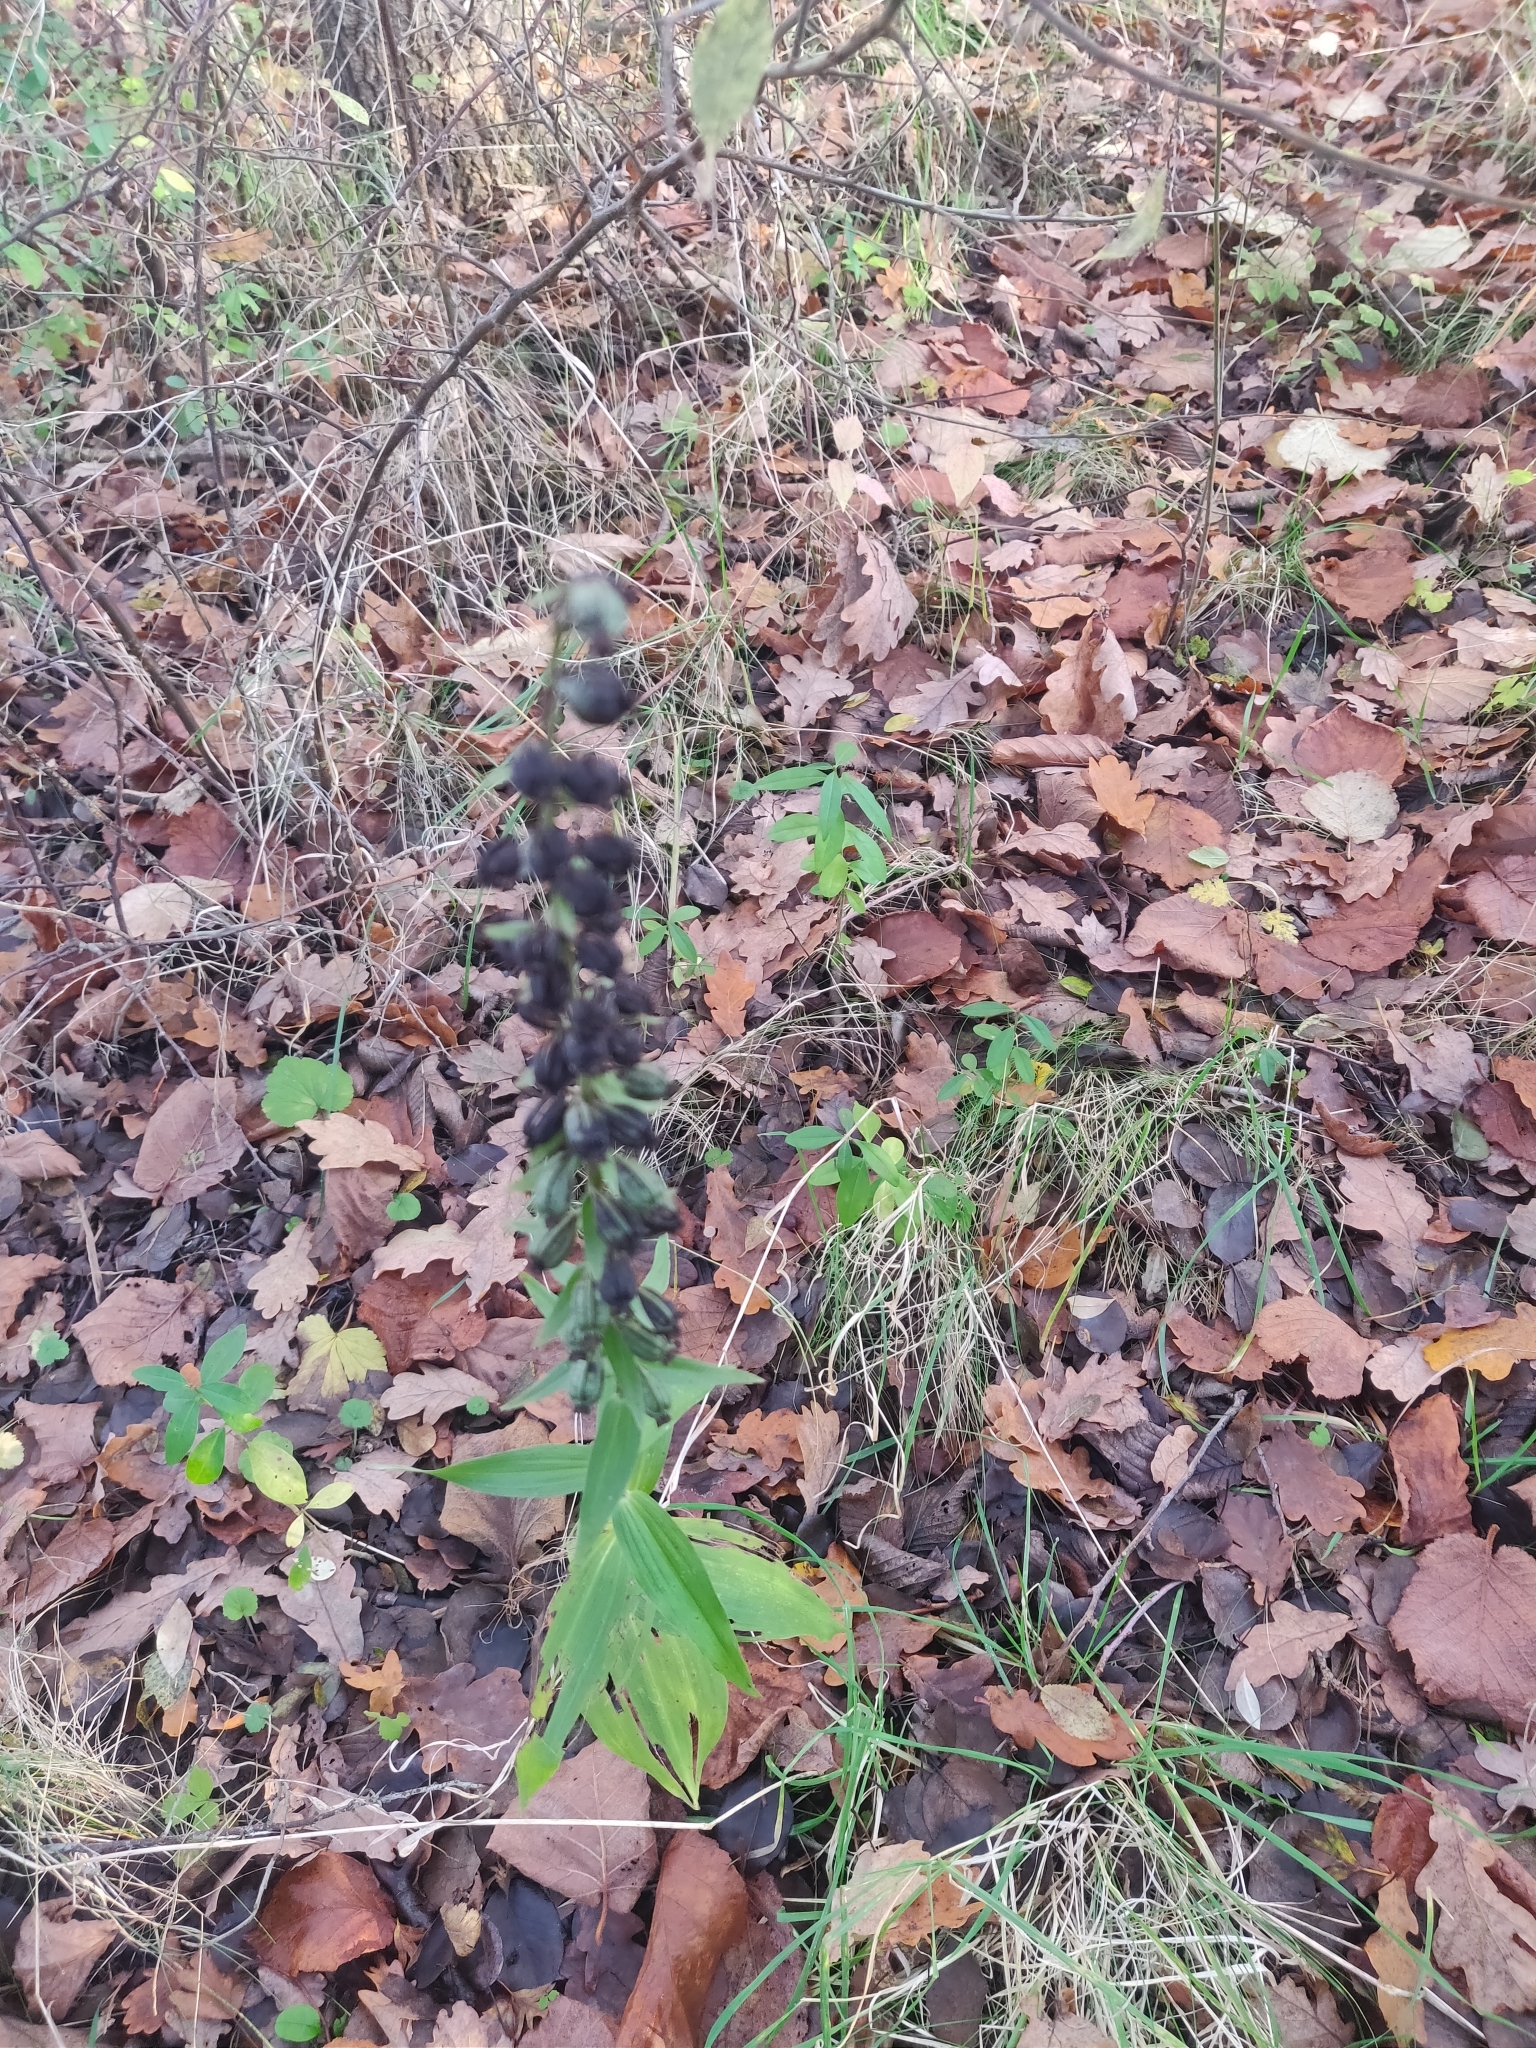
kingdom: Plantae
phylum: Tracheophyta
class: Liliopsida
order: Asparagales
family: Orchidaceae
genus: Epipactis
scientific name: Epipactis helleborine
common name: Broad-leaved helleborine
